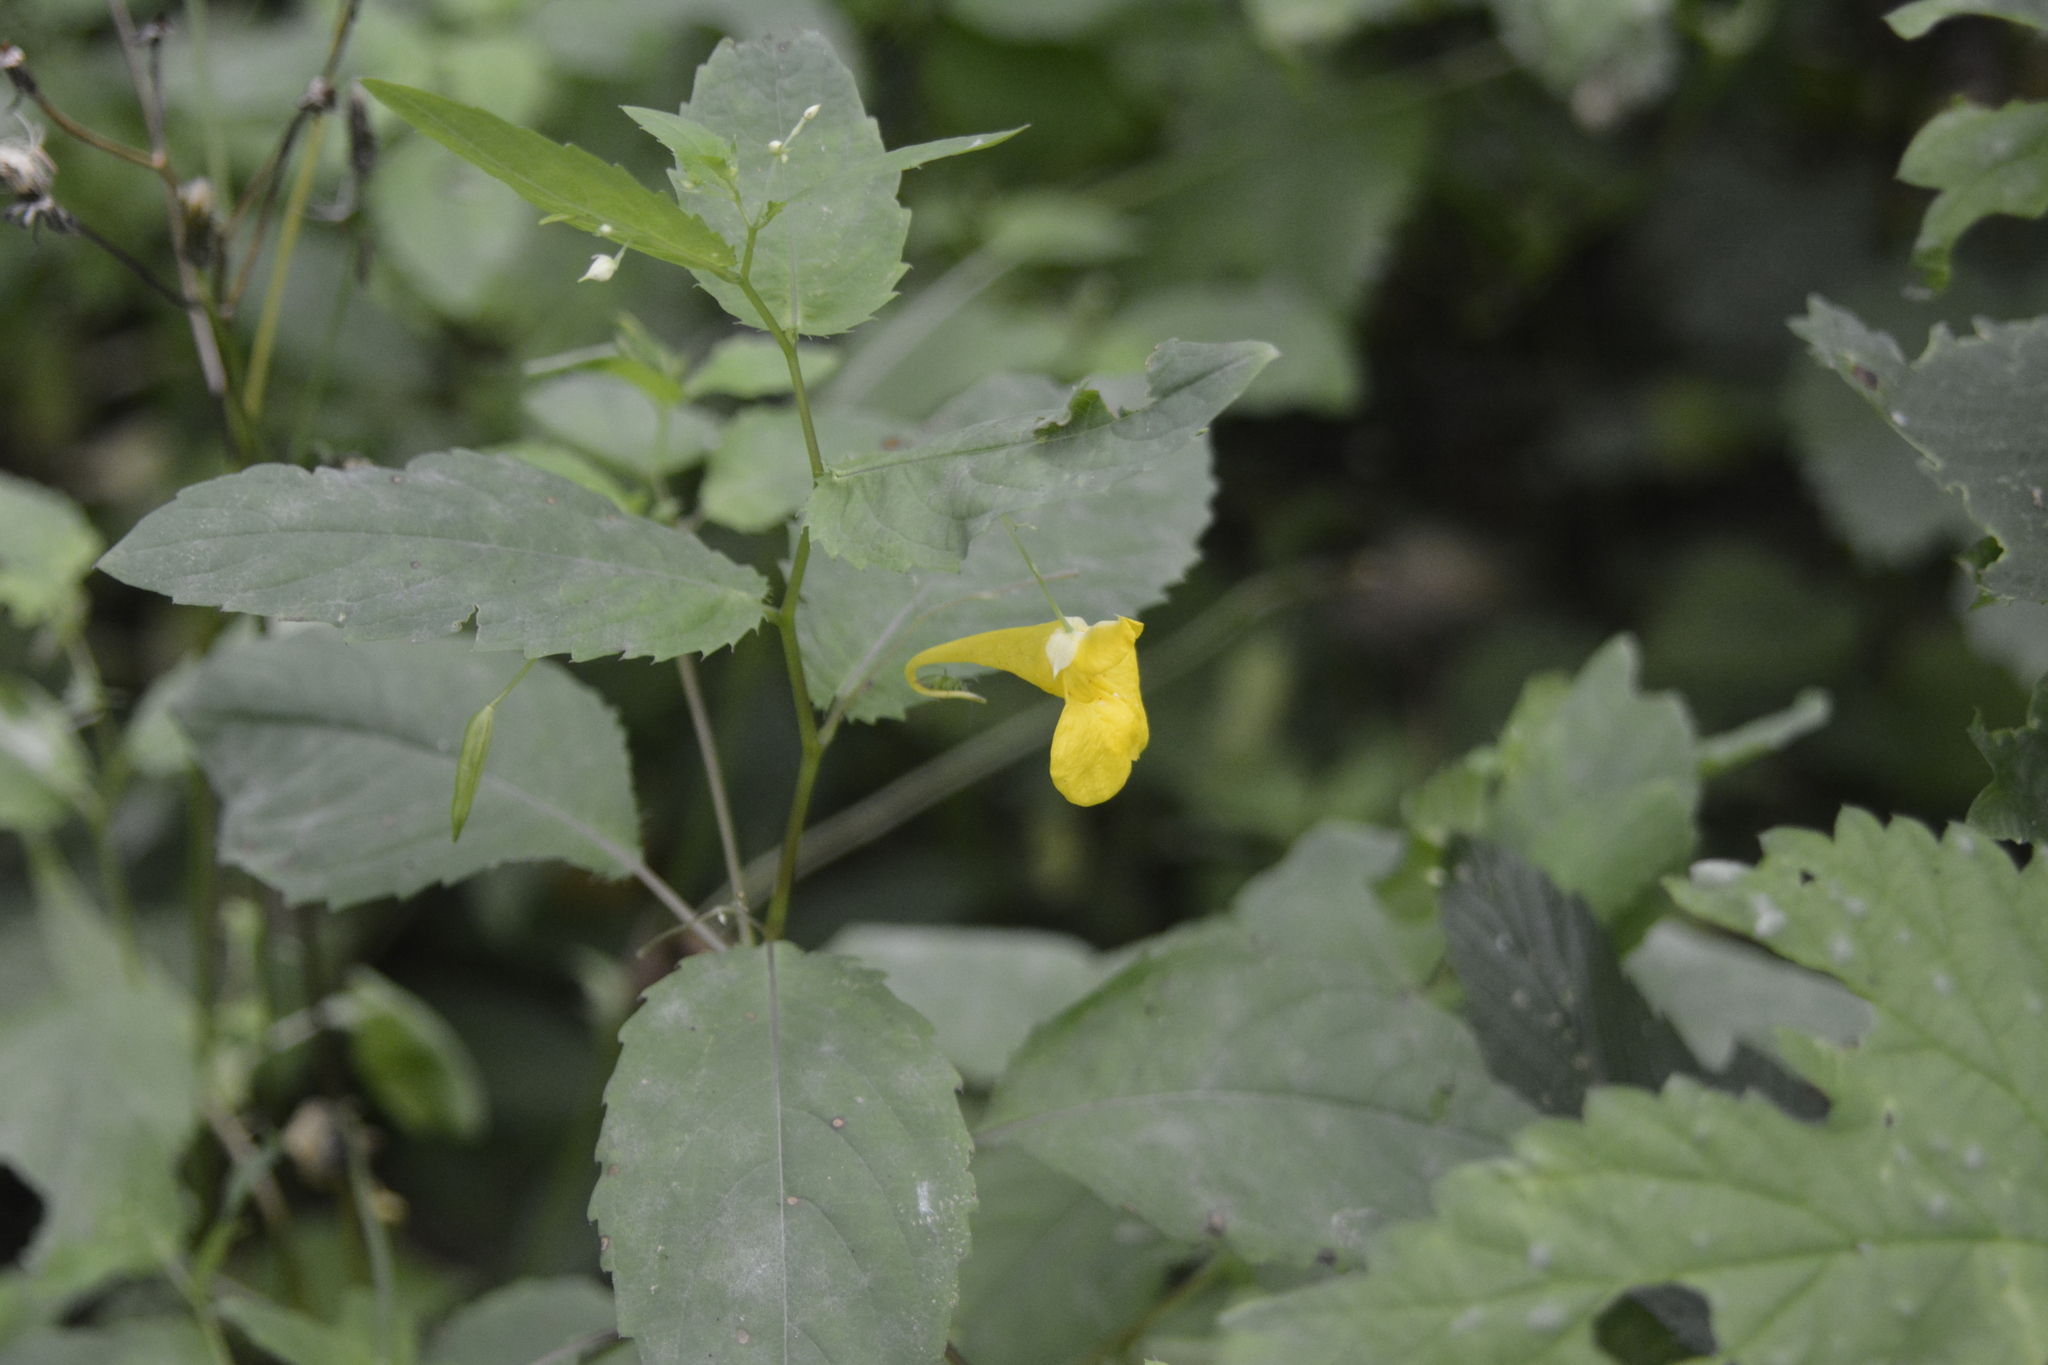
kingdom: Plantae
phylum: Tracheophyta
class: Magnoliopsida
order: Ericales
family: Balsaminaceae
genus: Impatiens
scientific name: Impatiens noli-tangere
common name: Touch-me-not balsam
